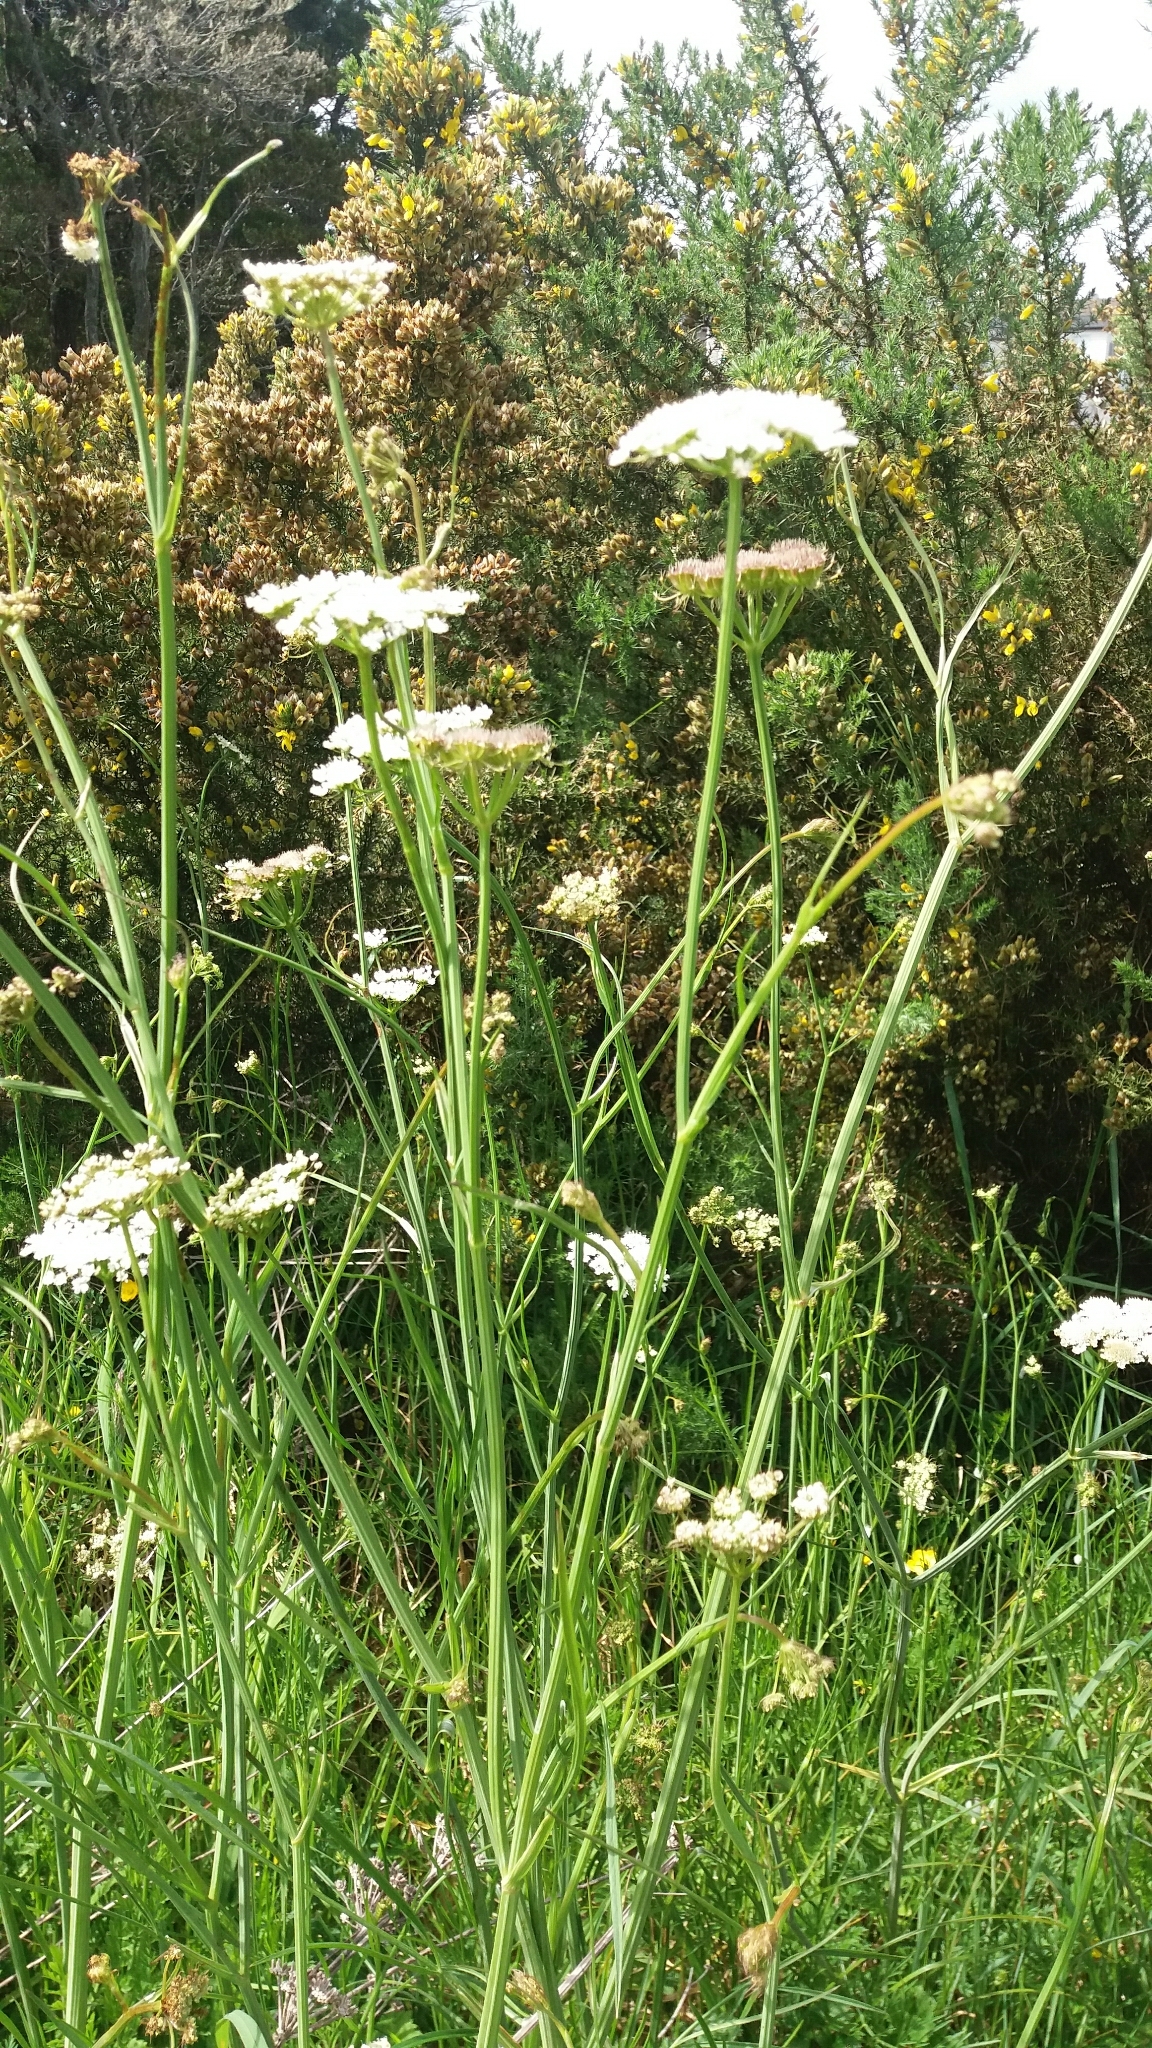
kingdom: Plantae
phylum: Tracheophyta
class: Magnoliopsida
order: Apiales
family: Apiaceae
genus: Oenanthe
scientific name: Oenanthe pimpinelloides
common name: Corky-fruited water-dropwort
